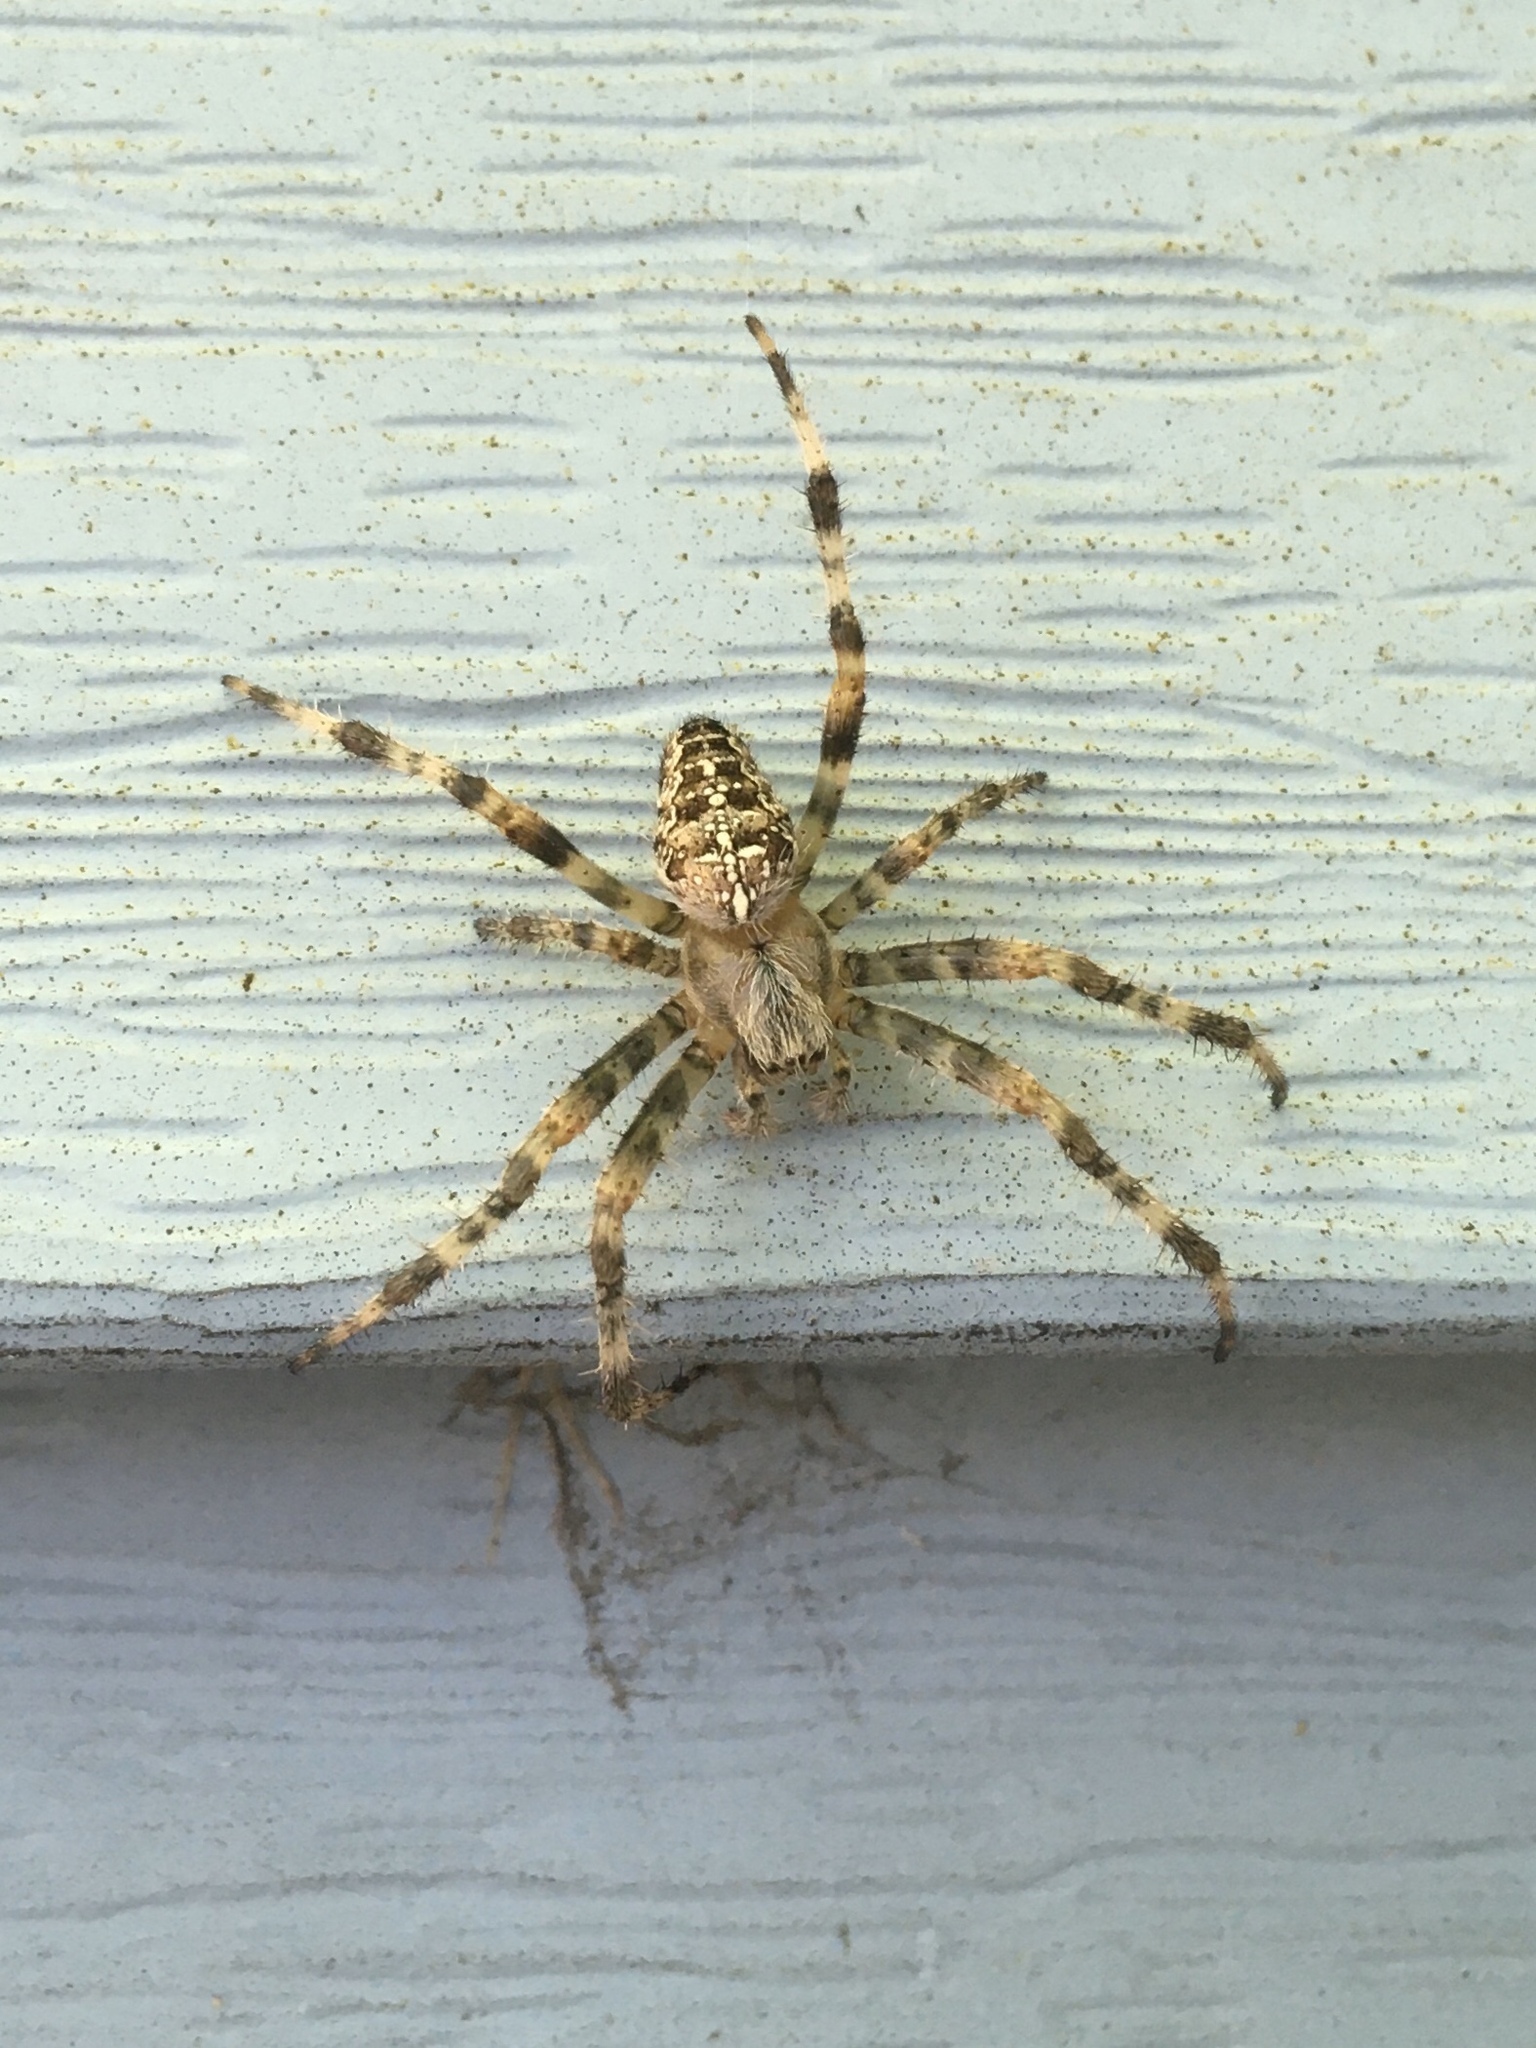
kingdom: Animalia
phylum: Arthropoda
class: Arachnida
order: Araneae
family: Araneidae
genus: Araneus
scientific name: Araneus diadematus
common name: Cross orbweaver
